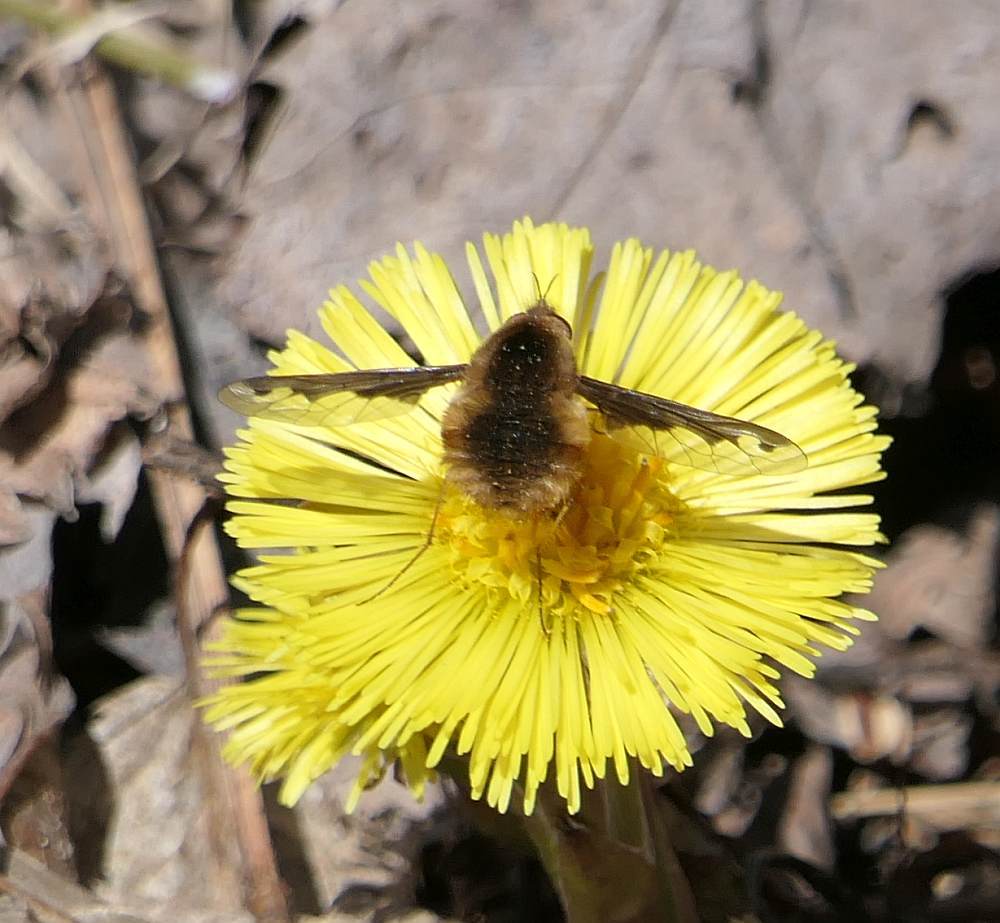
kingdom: Animalia
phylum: Arthropoda
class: Insecta
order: Diptera
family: Bombyliidae
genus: Bombylius
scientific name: Bombylius major
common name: Bee fly
